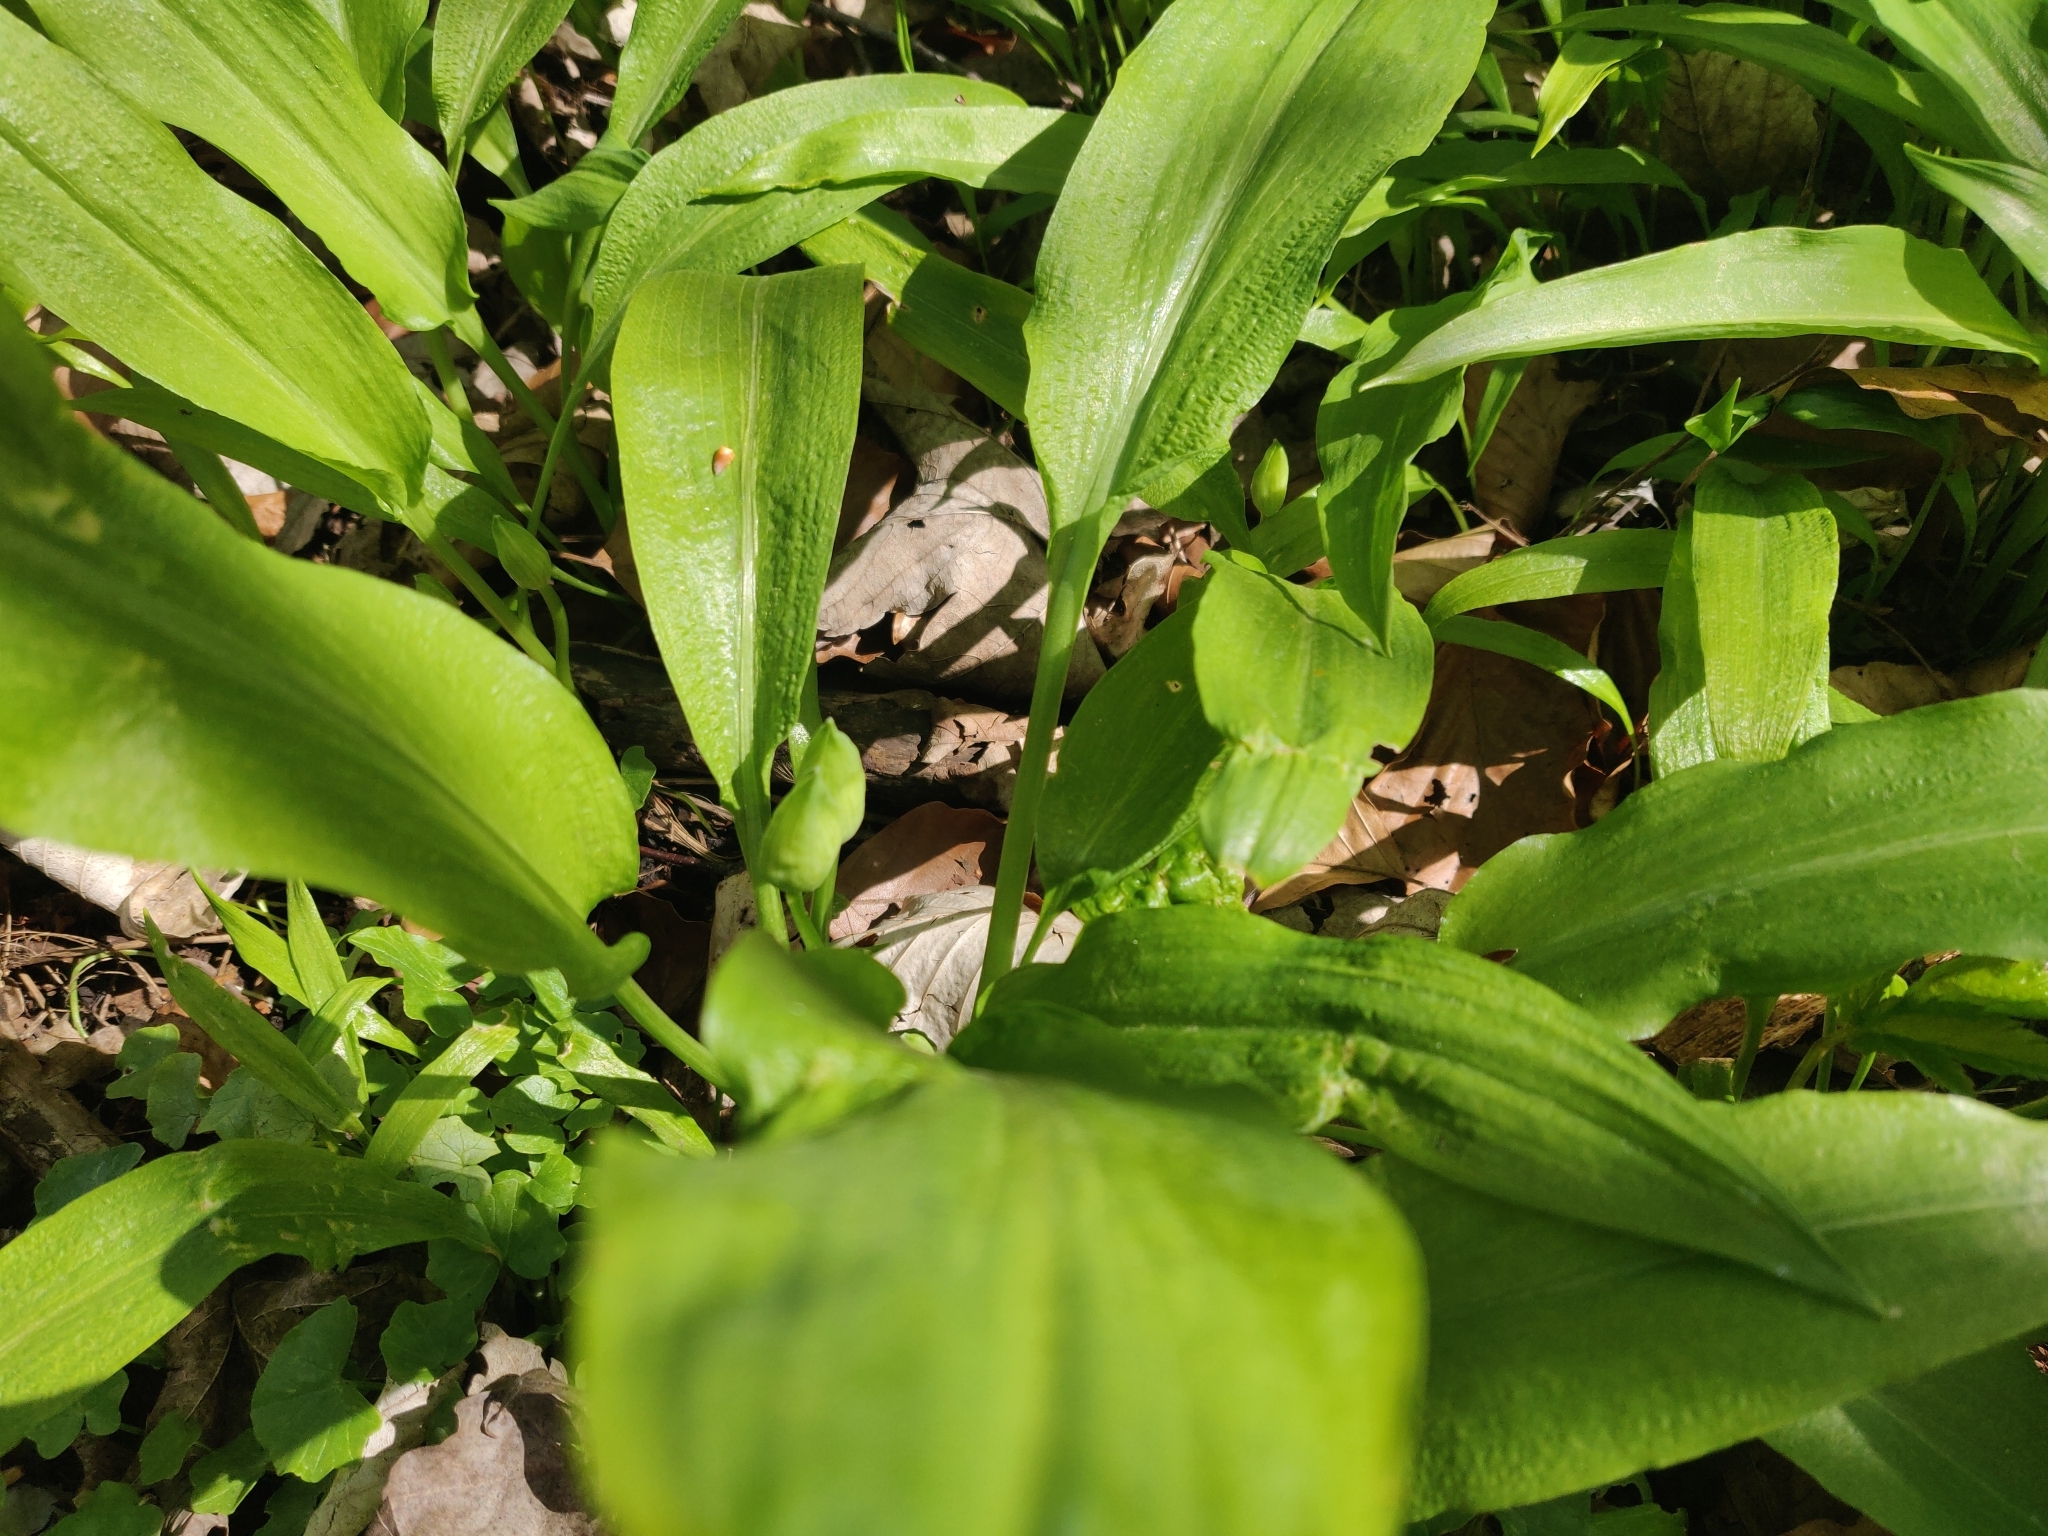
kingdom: Plantae
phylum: Tracheophyta
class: Liliopsida
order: Asparagales
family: Amaryllidaceae
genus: Allium
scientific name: Allium ursinum
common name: Ramsons
